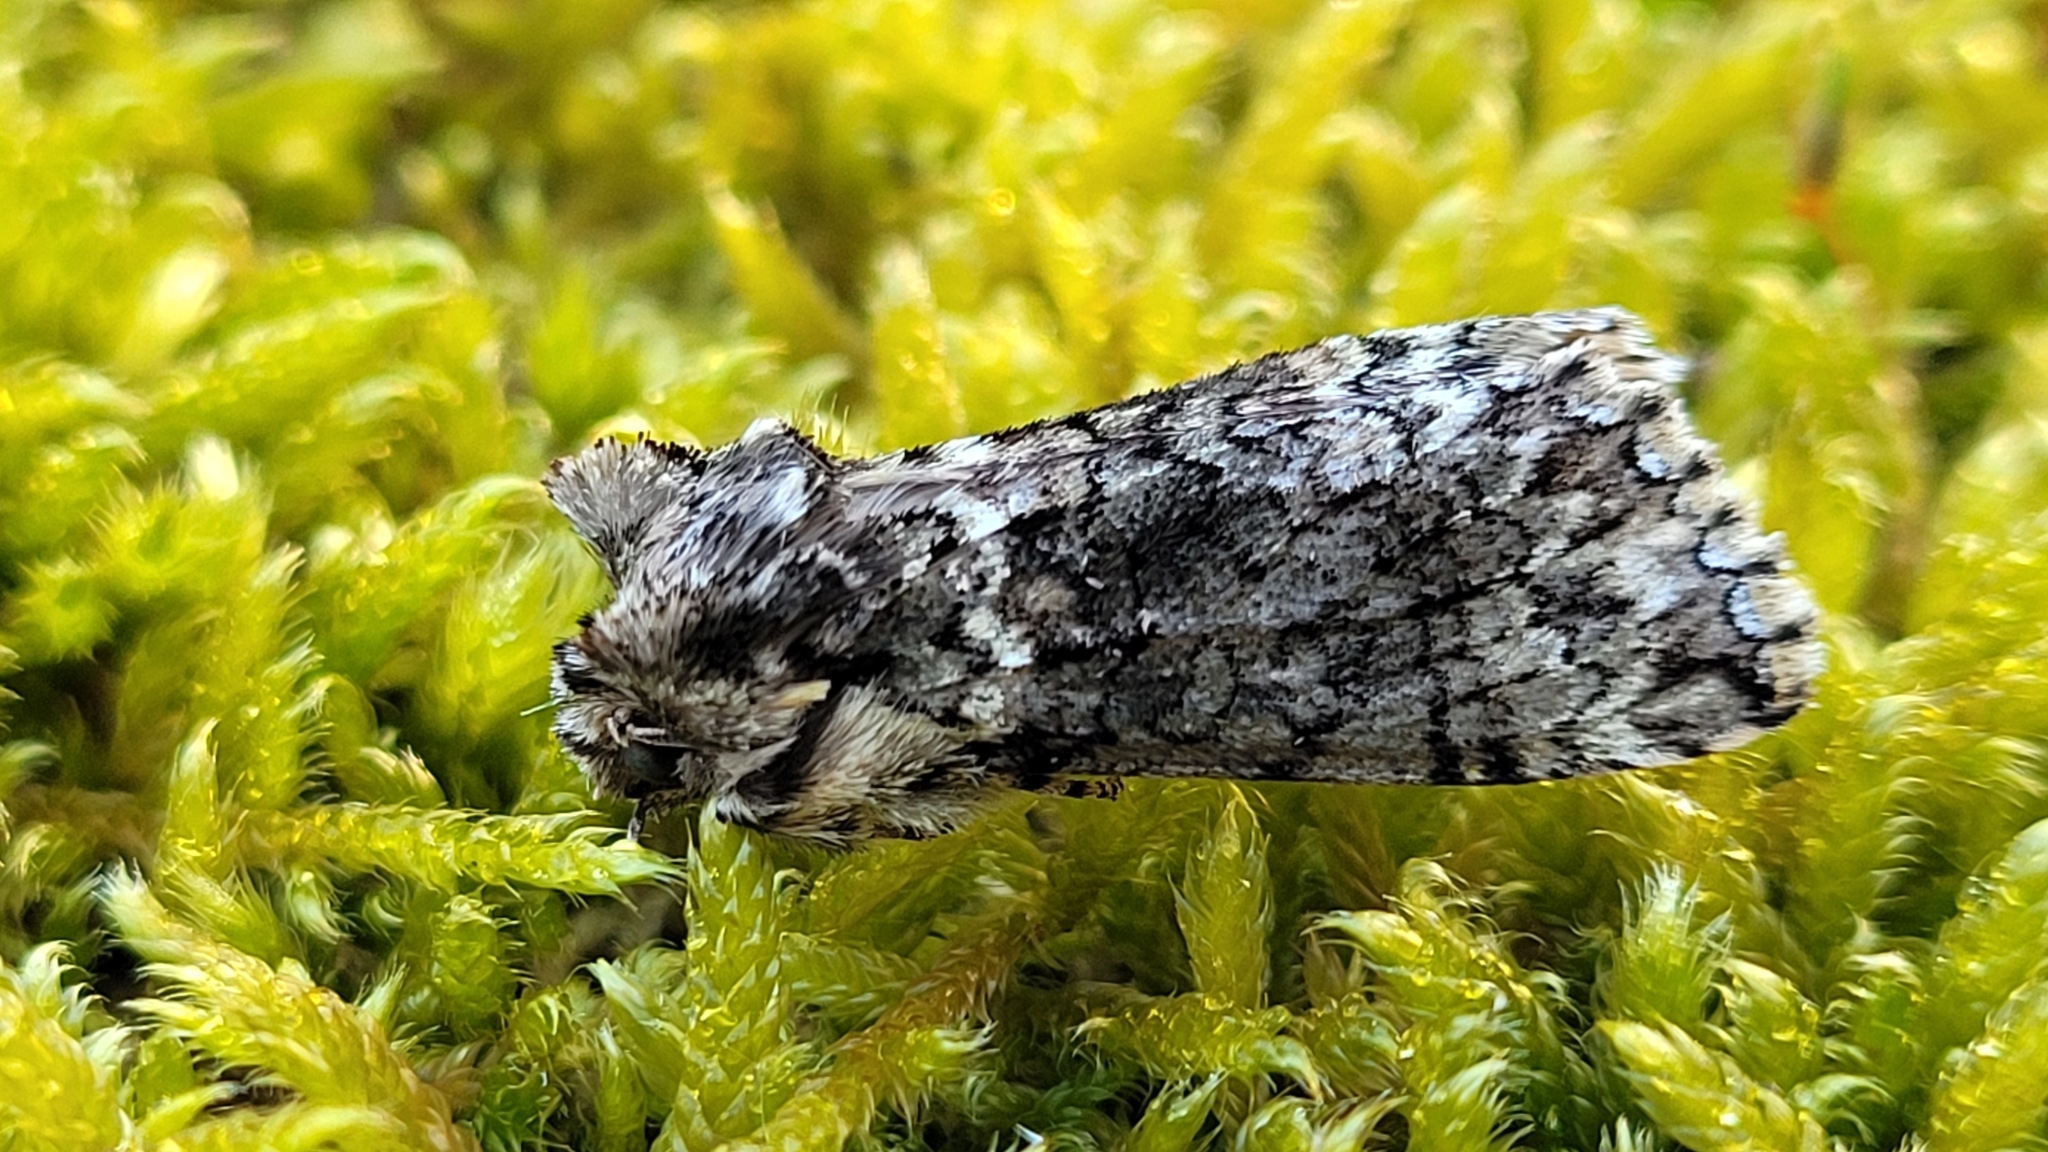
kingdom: Animalia
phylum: Arthropoda
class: Insecta
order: Lepidoptera
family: Drepanidae
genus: Polyploca
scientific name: Polyploca ridens
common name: Frosted green
